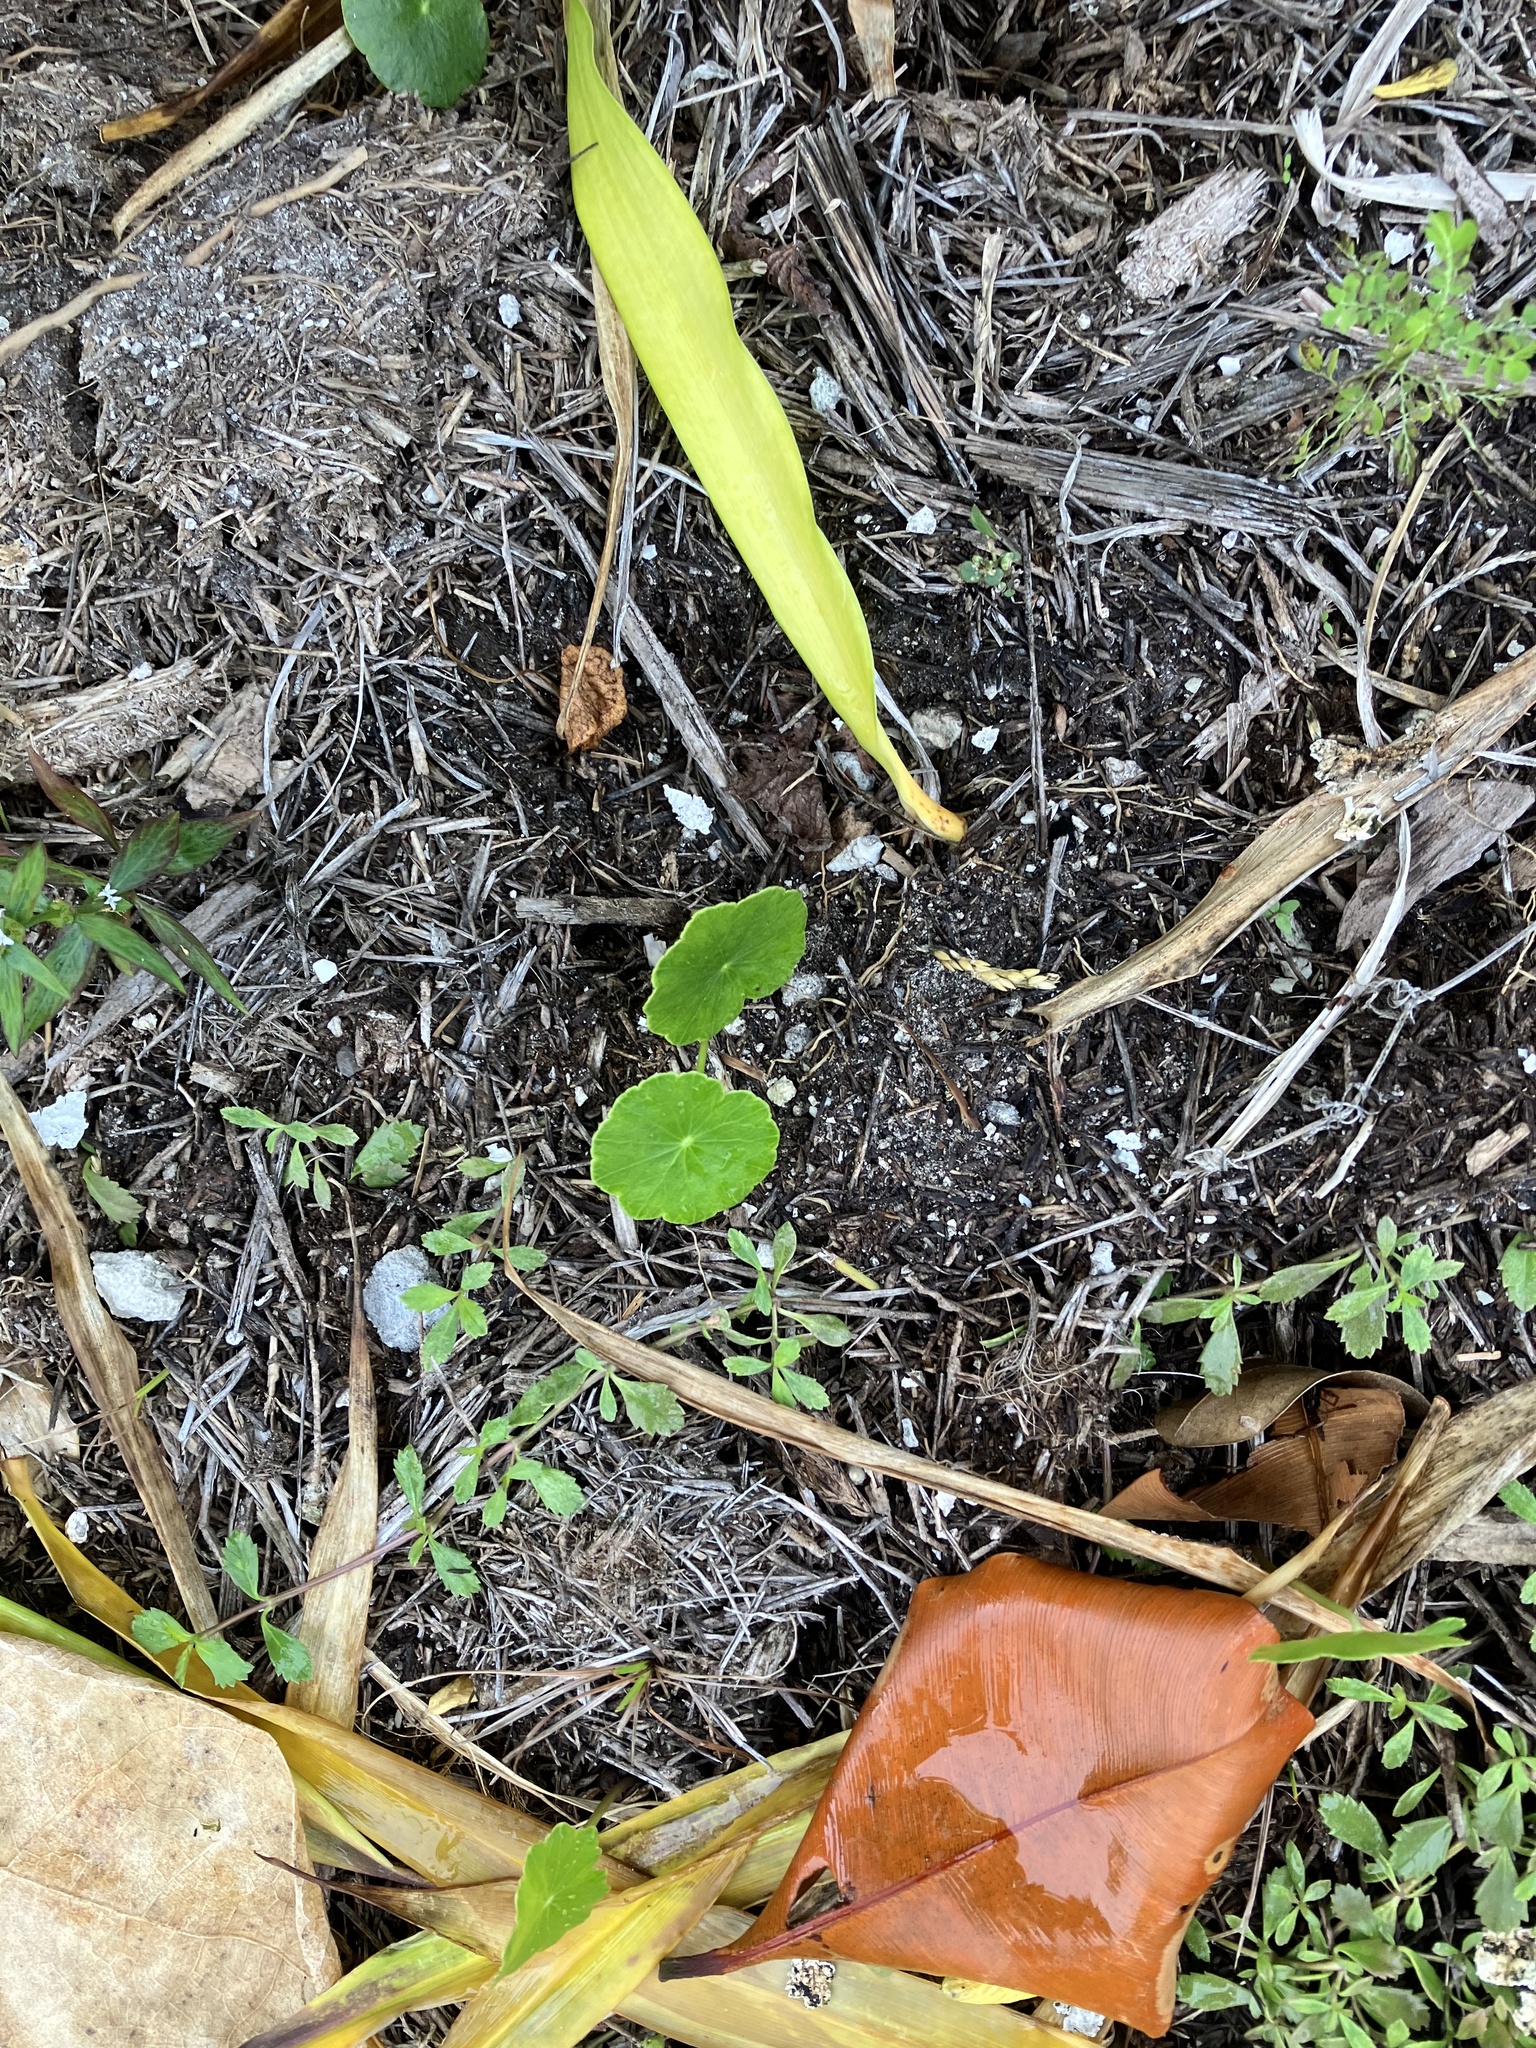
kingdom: Plantae
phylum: Tracheophyta
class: Magnoliopsida
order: Apiales
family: Araliaceae
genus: Hydrocotyle
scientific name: Hydrocotyle bonariensis
